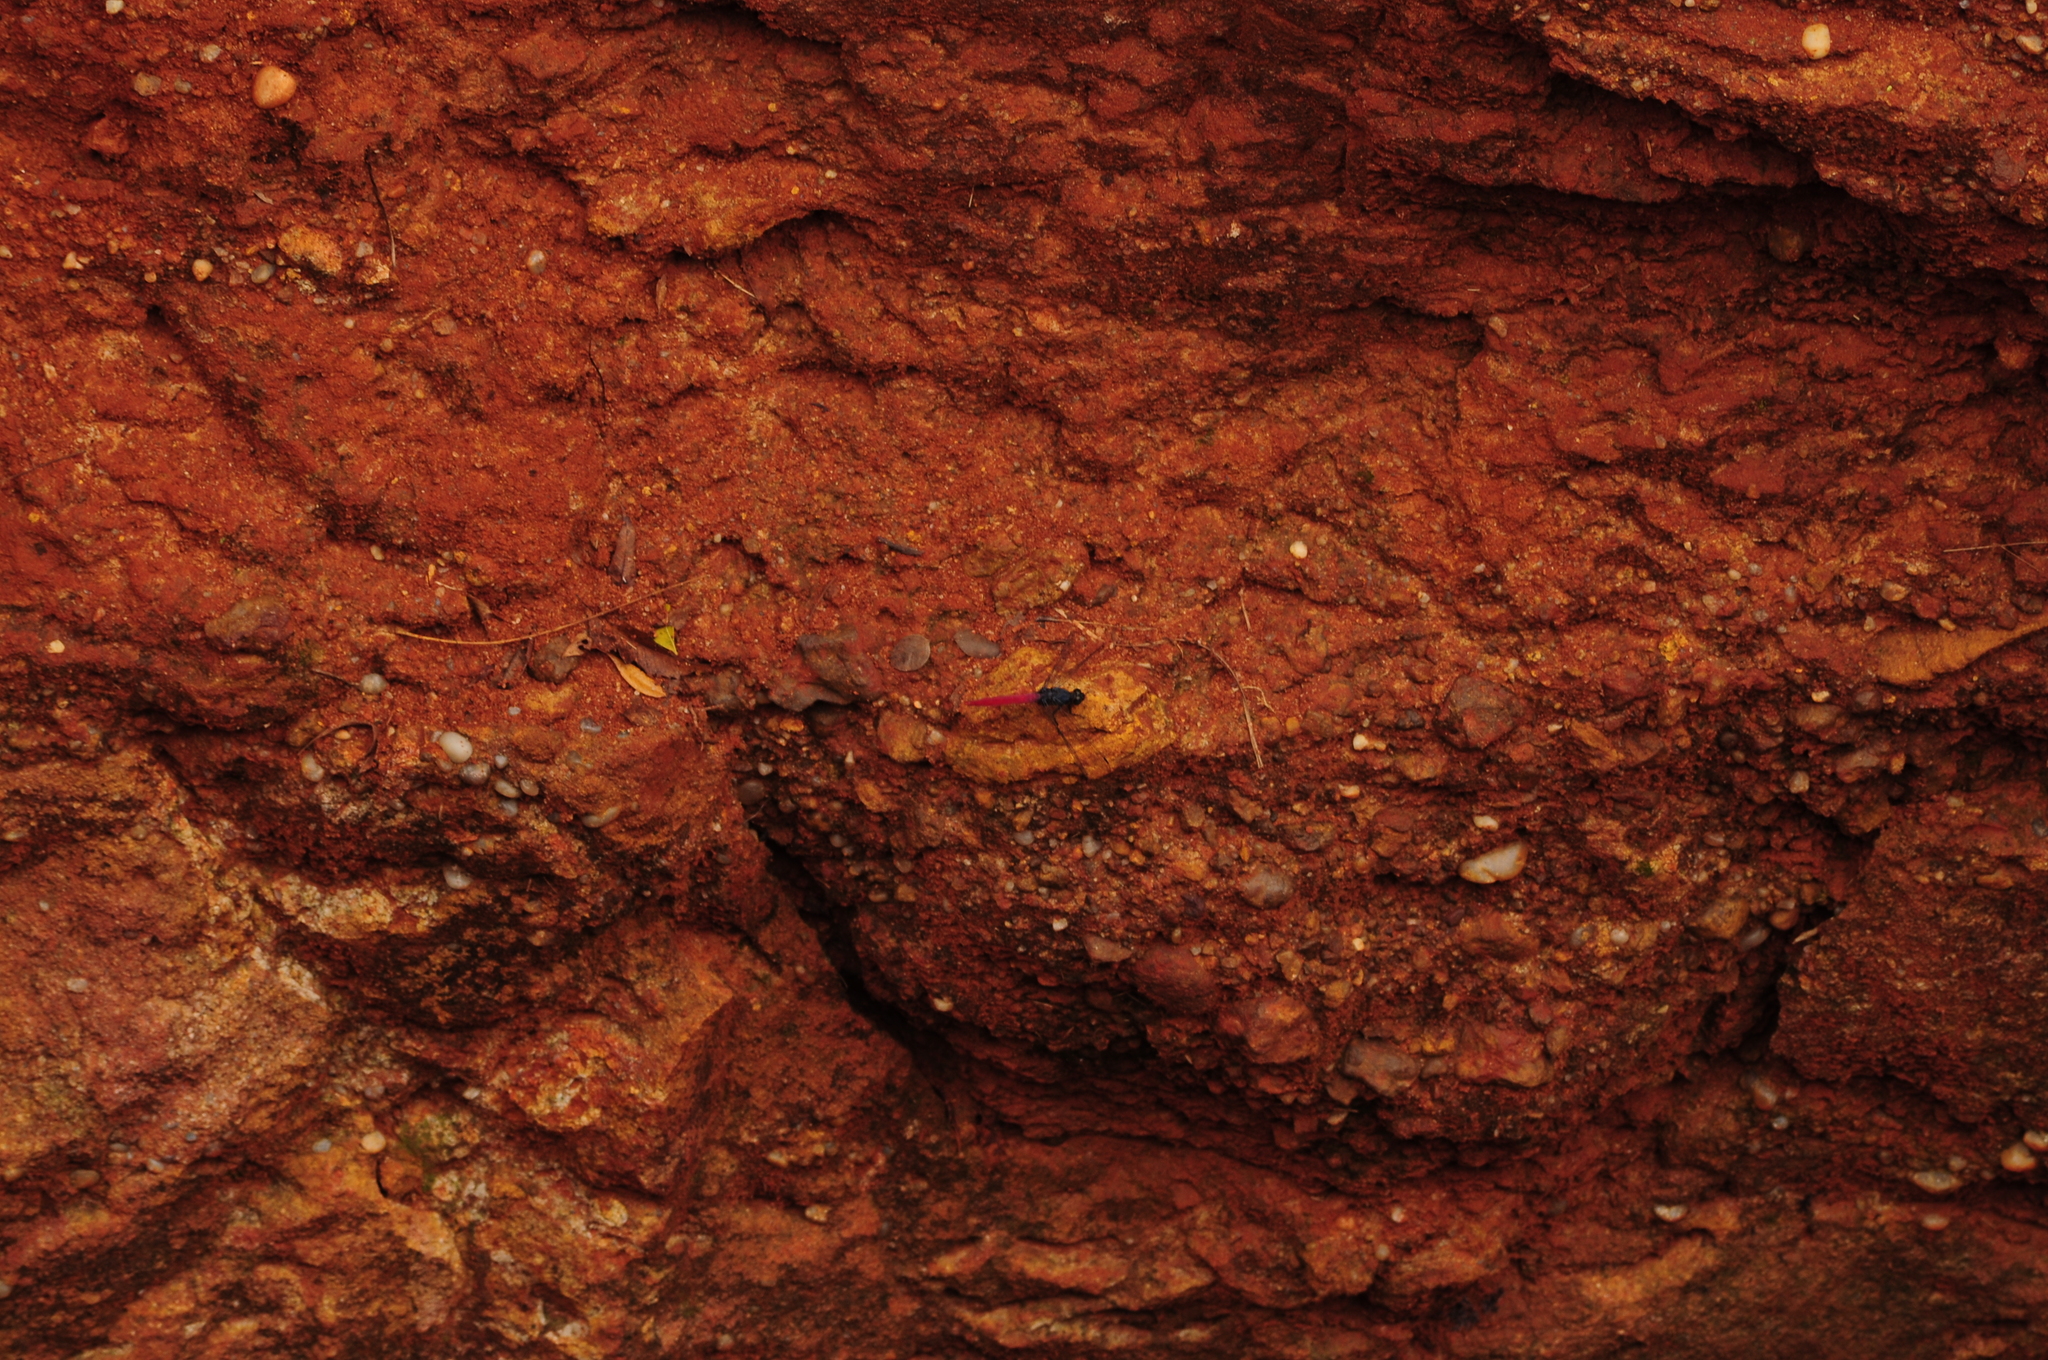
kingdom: Animalia
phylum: Arthropoda
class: Insecta
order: Odonata
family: Libellulidae
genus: Orthetrum
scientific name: Orthetrum pruinosum
